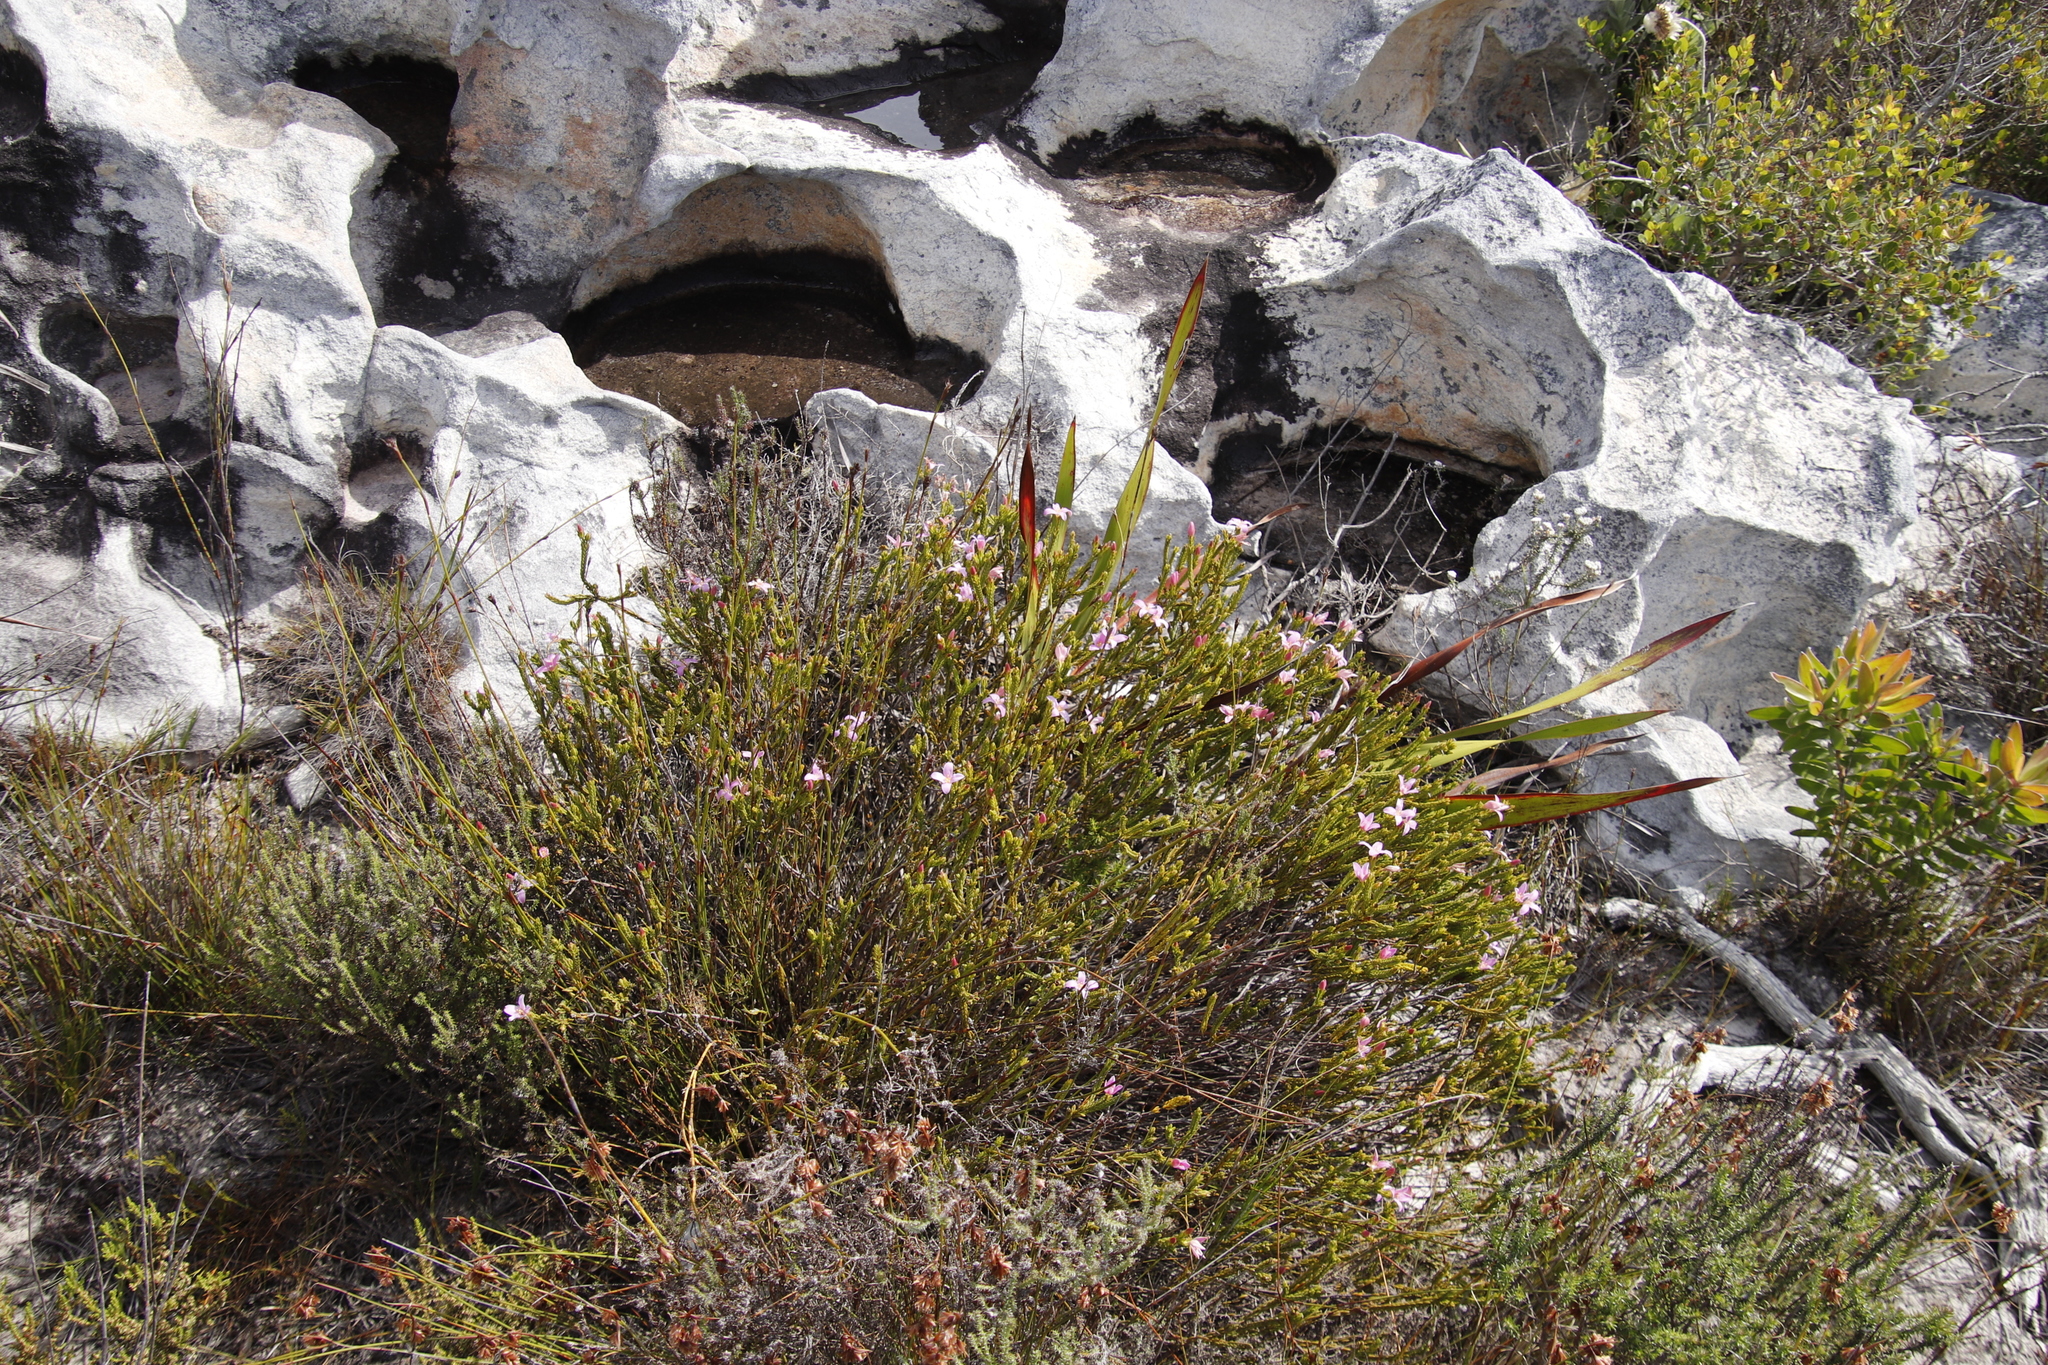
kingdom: Plantae
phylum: Tracheophyta
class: Magnoliopsida
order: Malvales
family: Thymelaeaceae
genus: Lachnaea
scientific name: Lachnaea grandiflora
